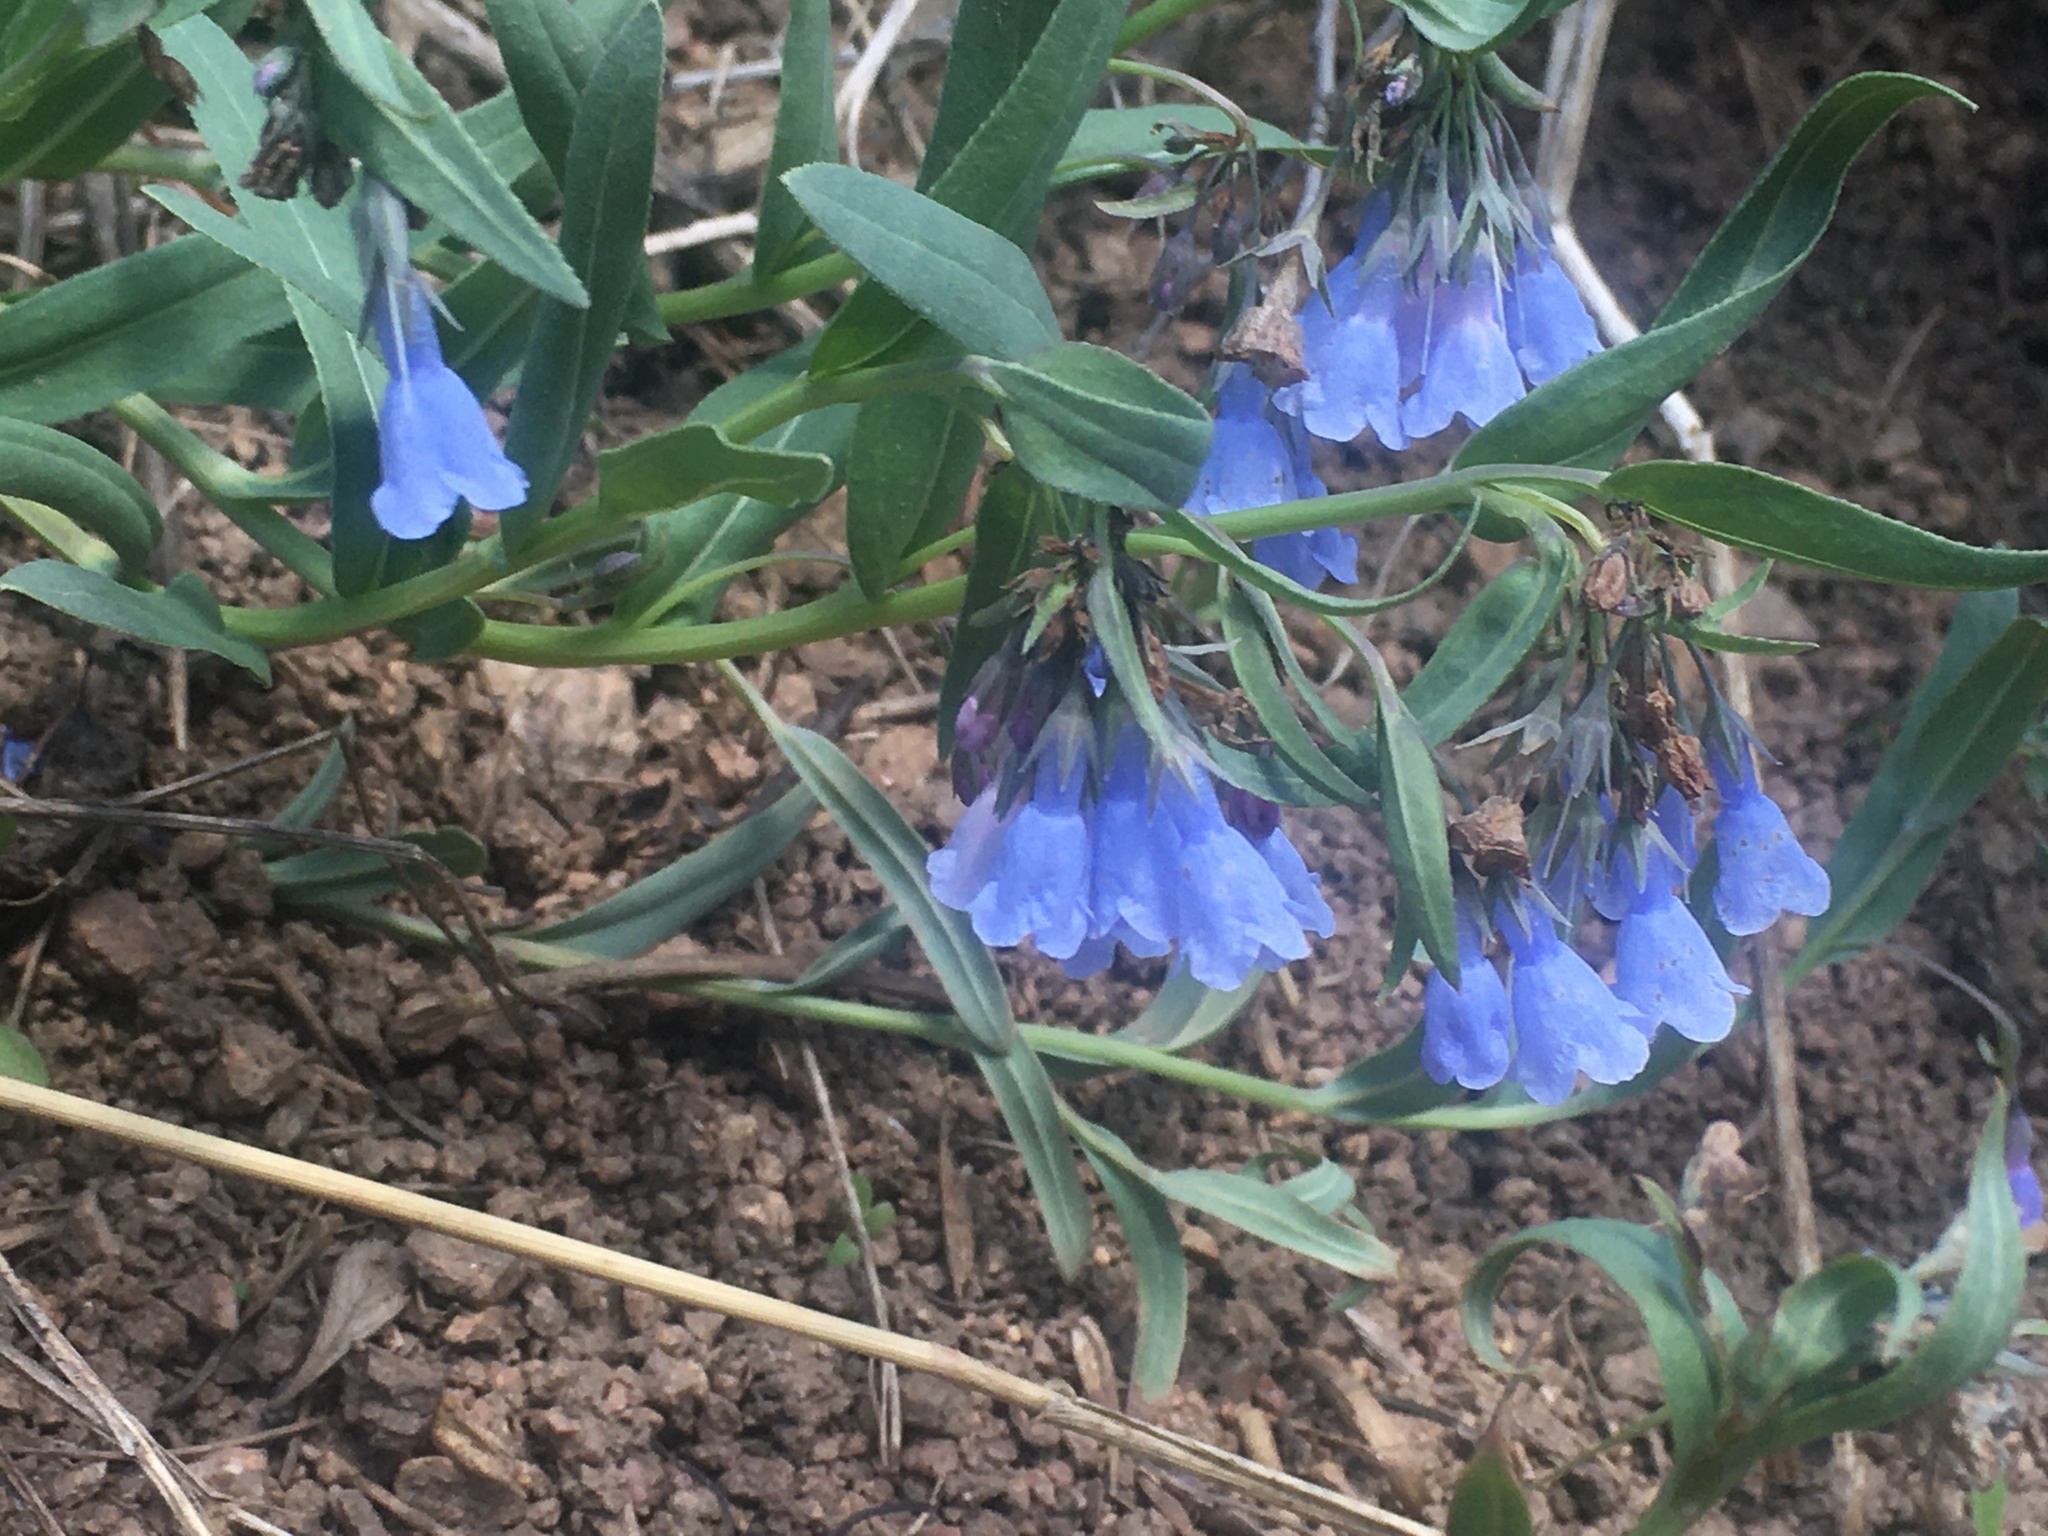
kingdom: Plantae
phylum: Tracheophyta
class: Magnoliopsida
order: Boraginales
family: Boraginaceae
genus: Mertensia
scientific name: Mertensia lanceolata
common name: Lance-leaved bluebells
